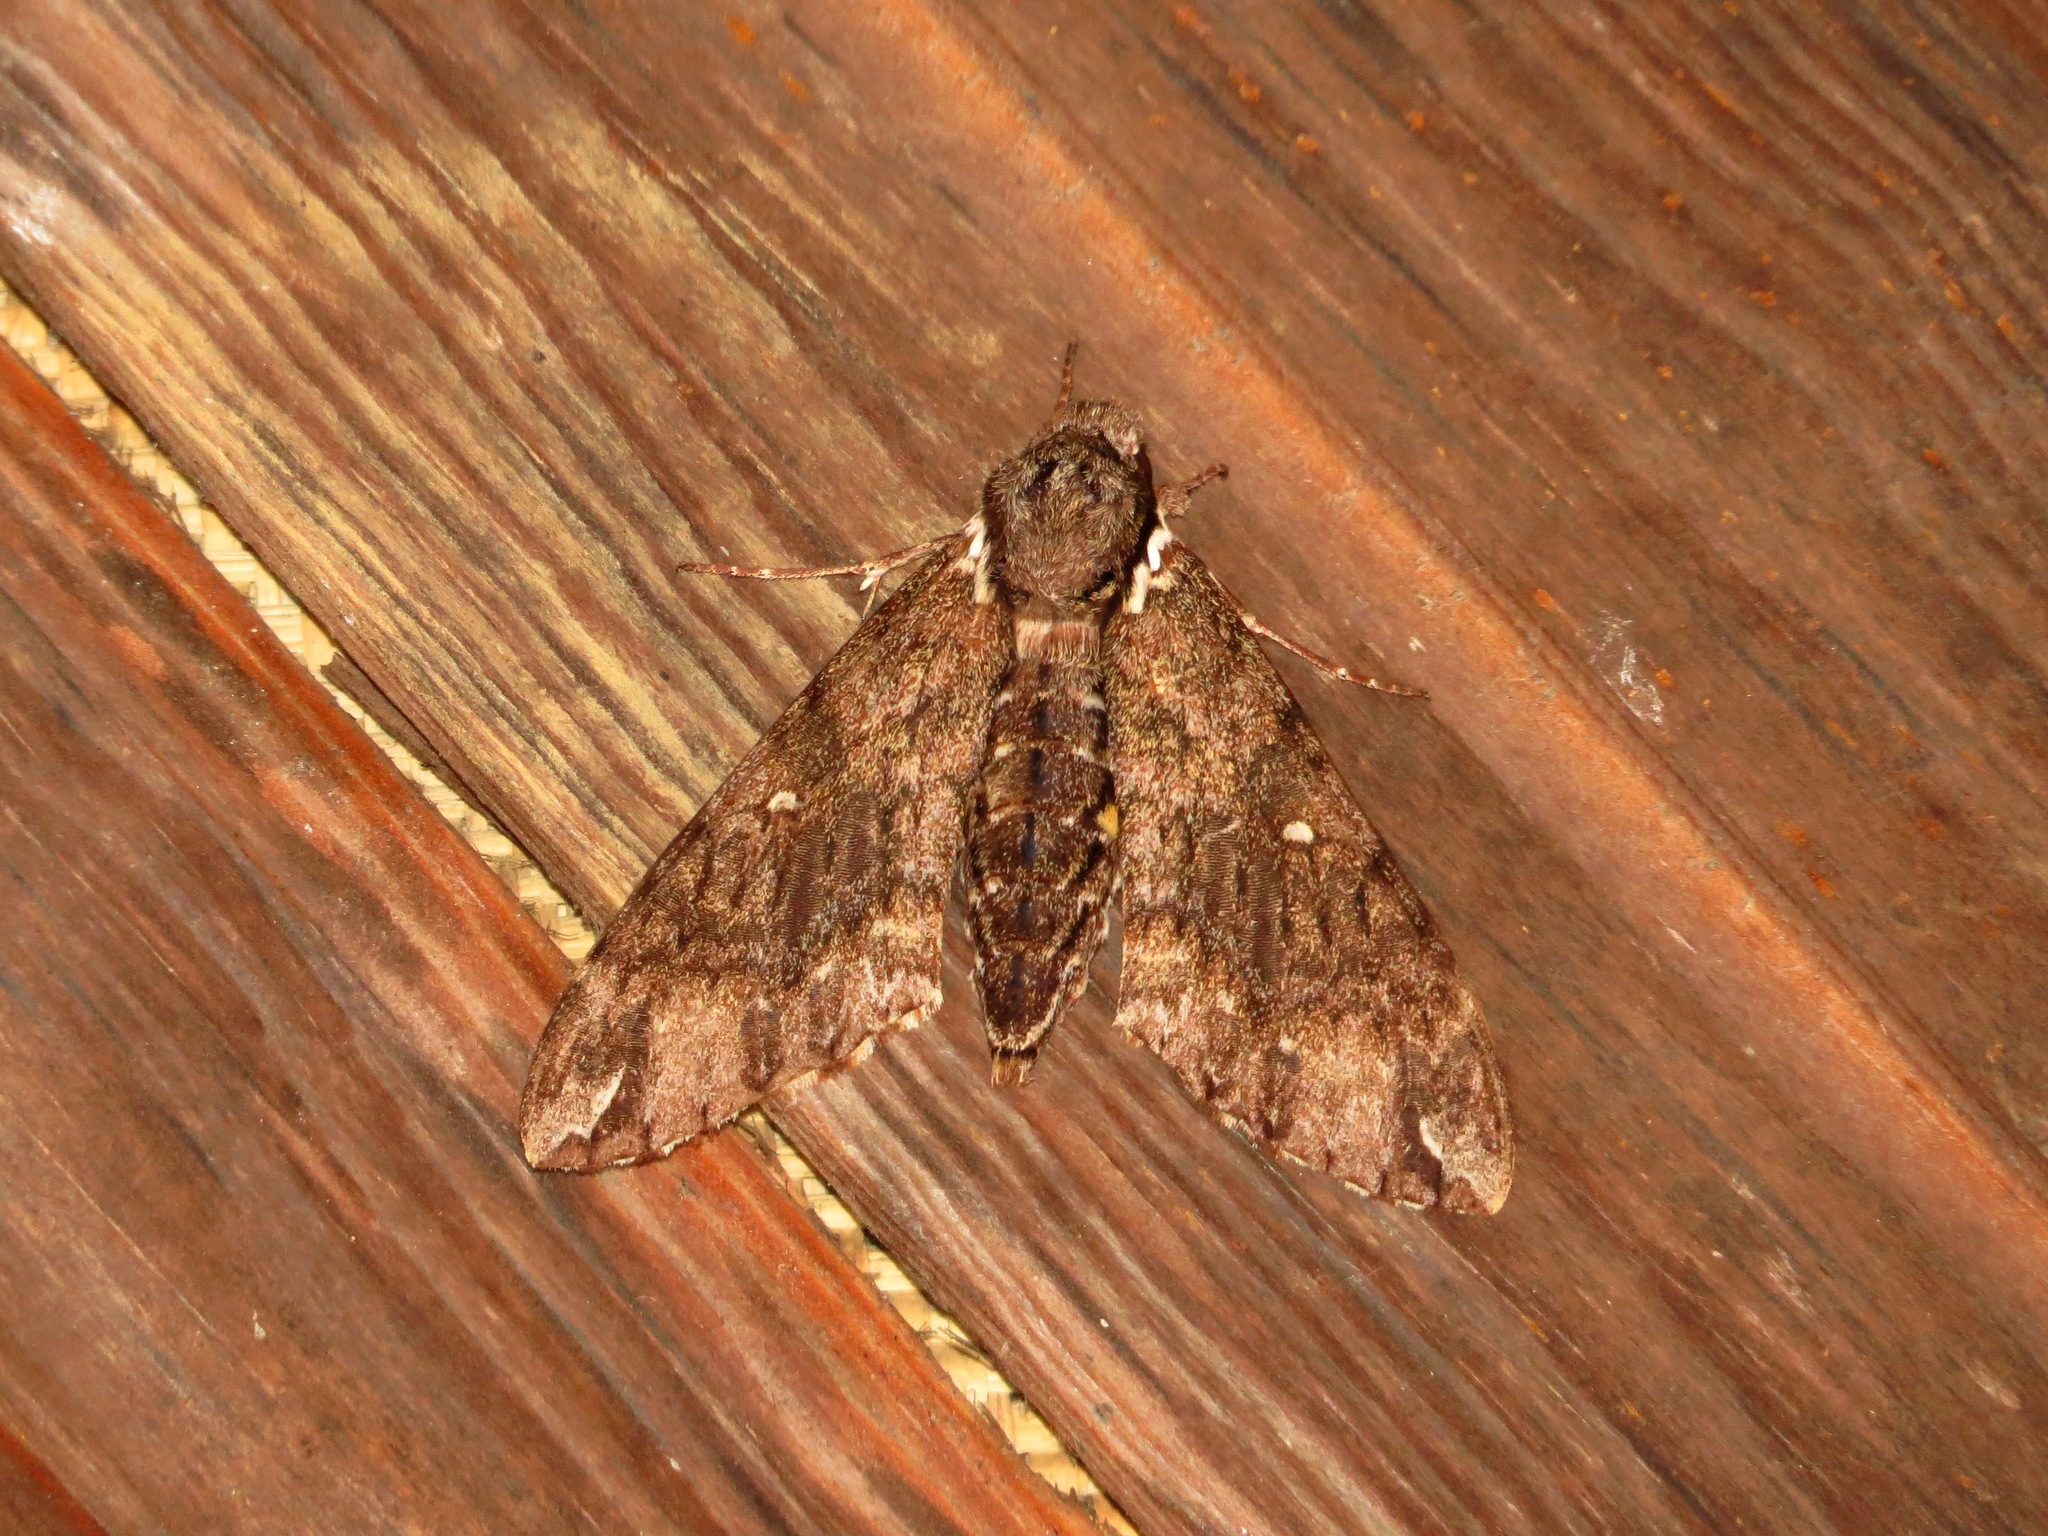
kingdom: Animalia
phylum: Arthropoda
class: Insecta
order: Lepidoptera
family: Sphingidae
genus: Panogena
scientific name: Panogena lingens
